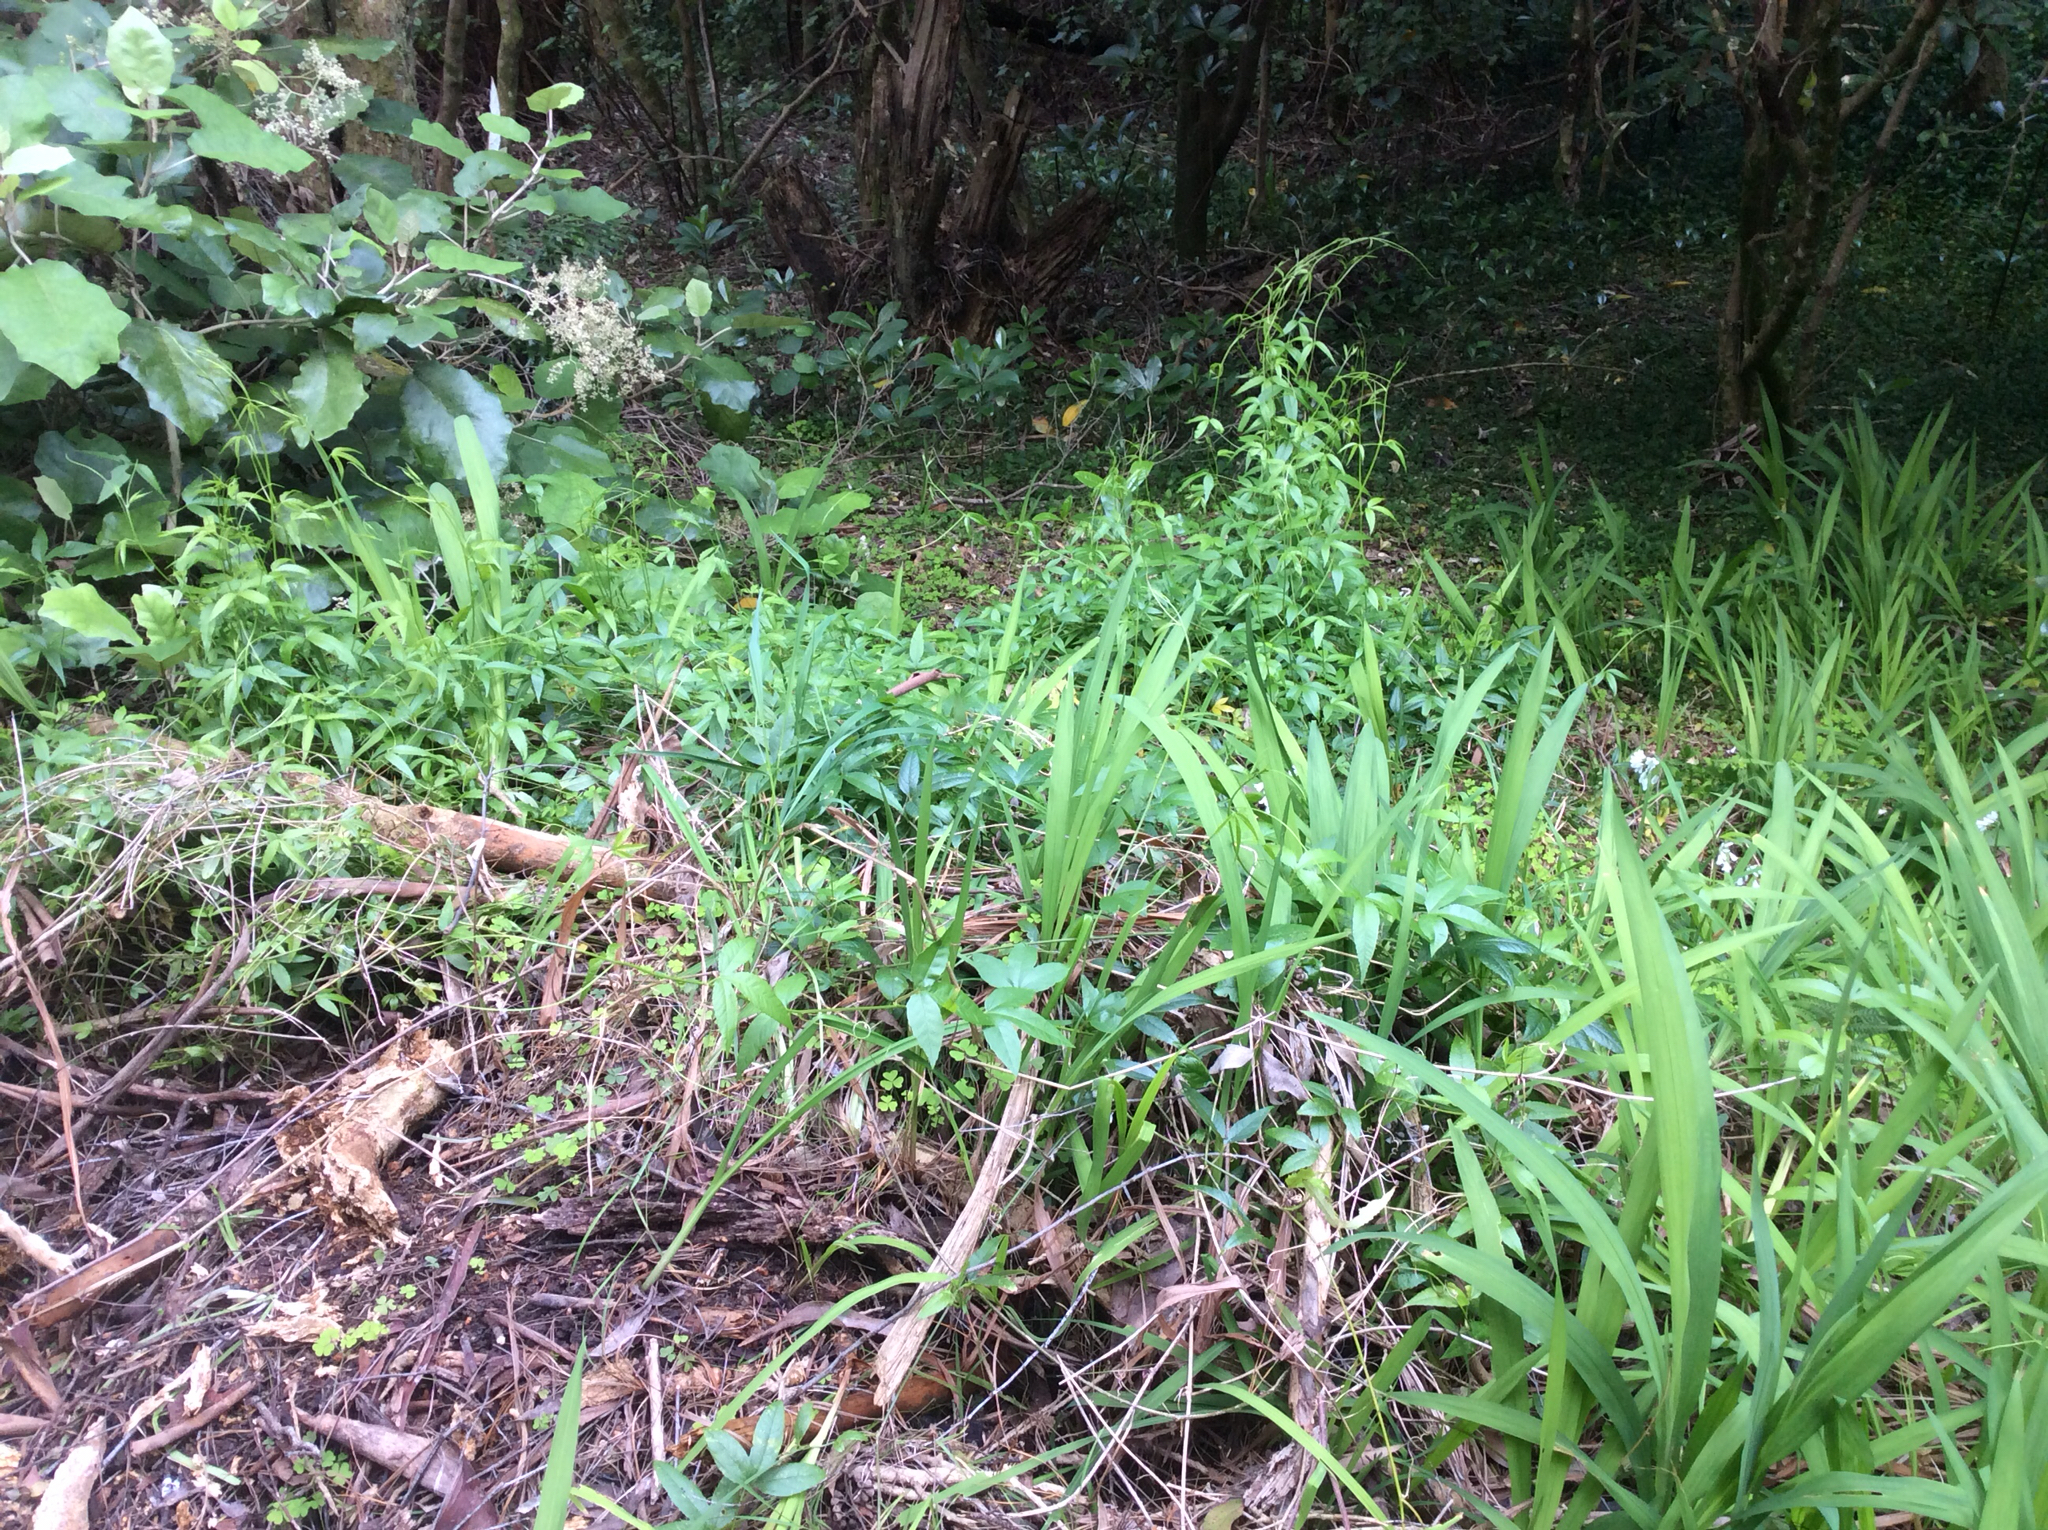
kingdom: Plantae
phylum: Tracheophyta
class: Magnoliopsida
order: Malpighiales
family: Passifloraceae
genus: Passiflora
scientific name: Passiflora tripartita
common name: Banana poka
